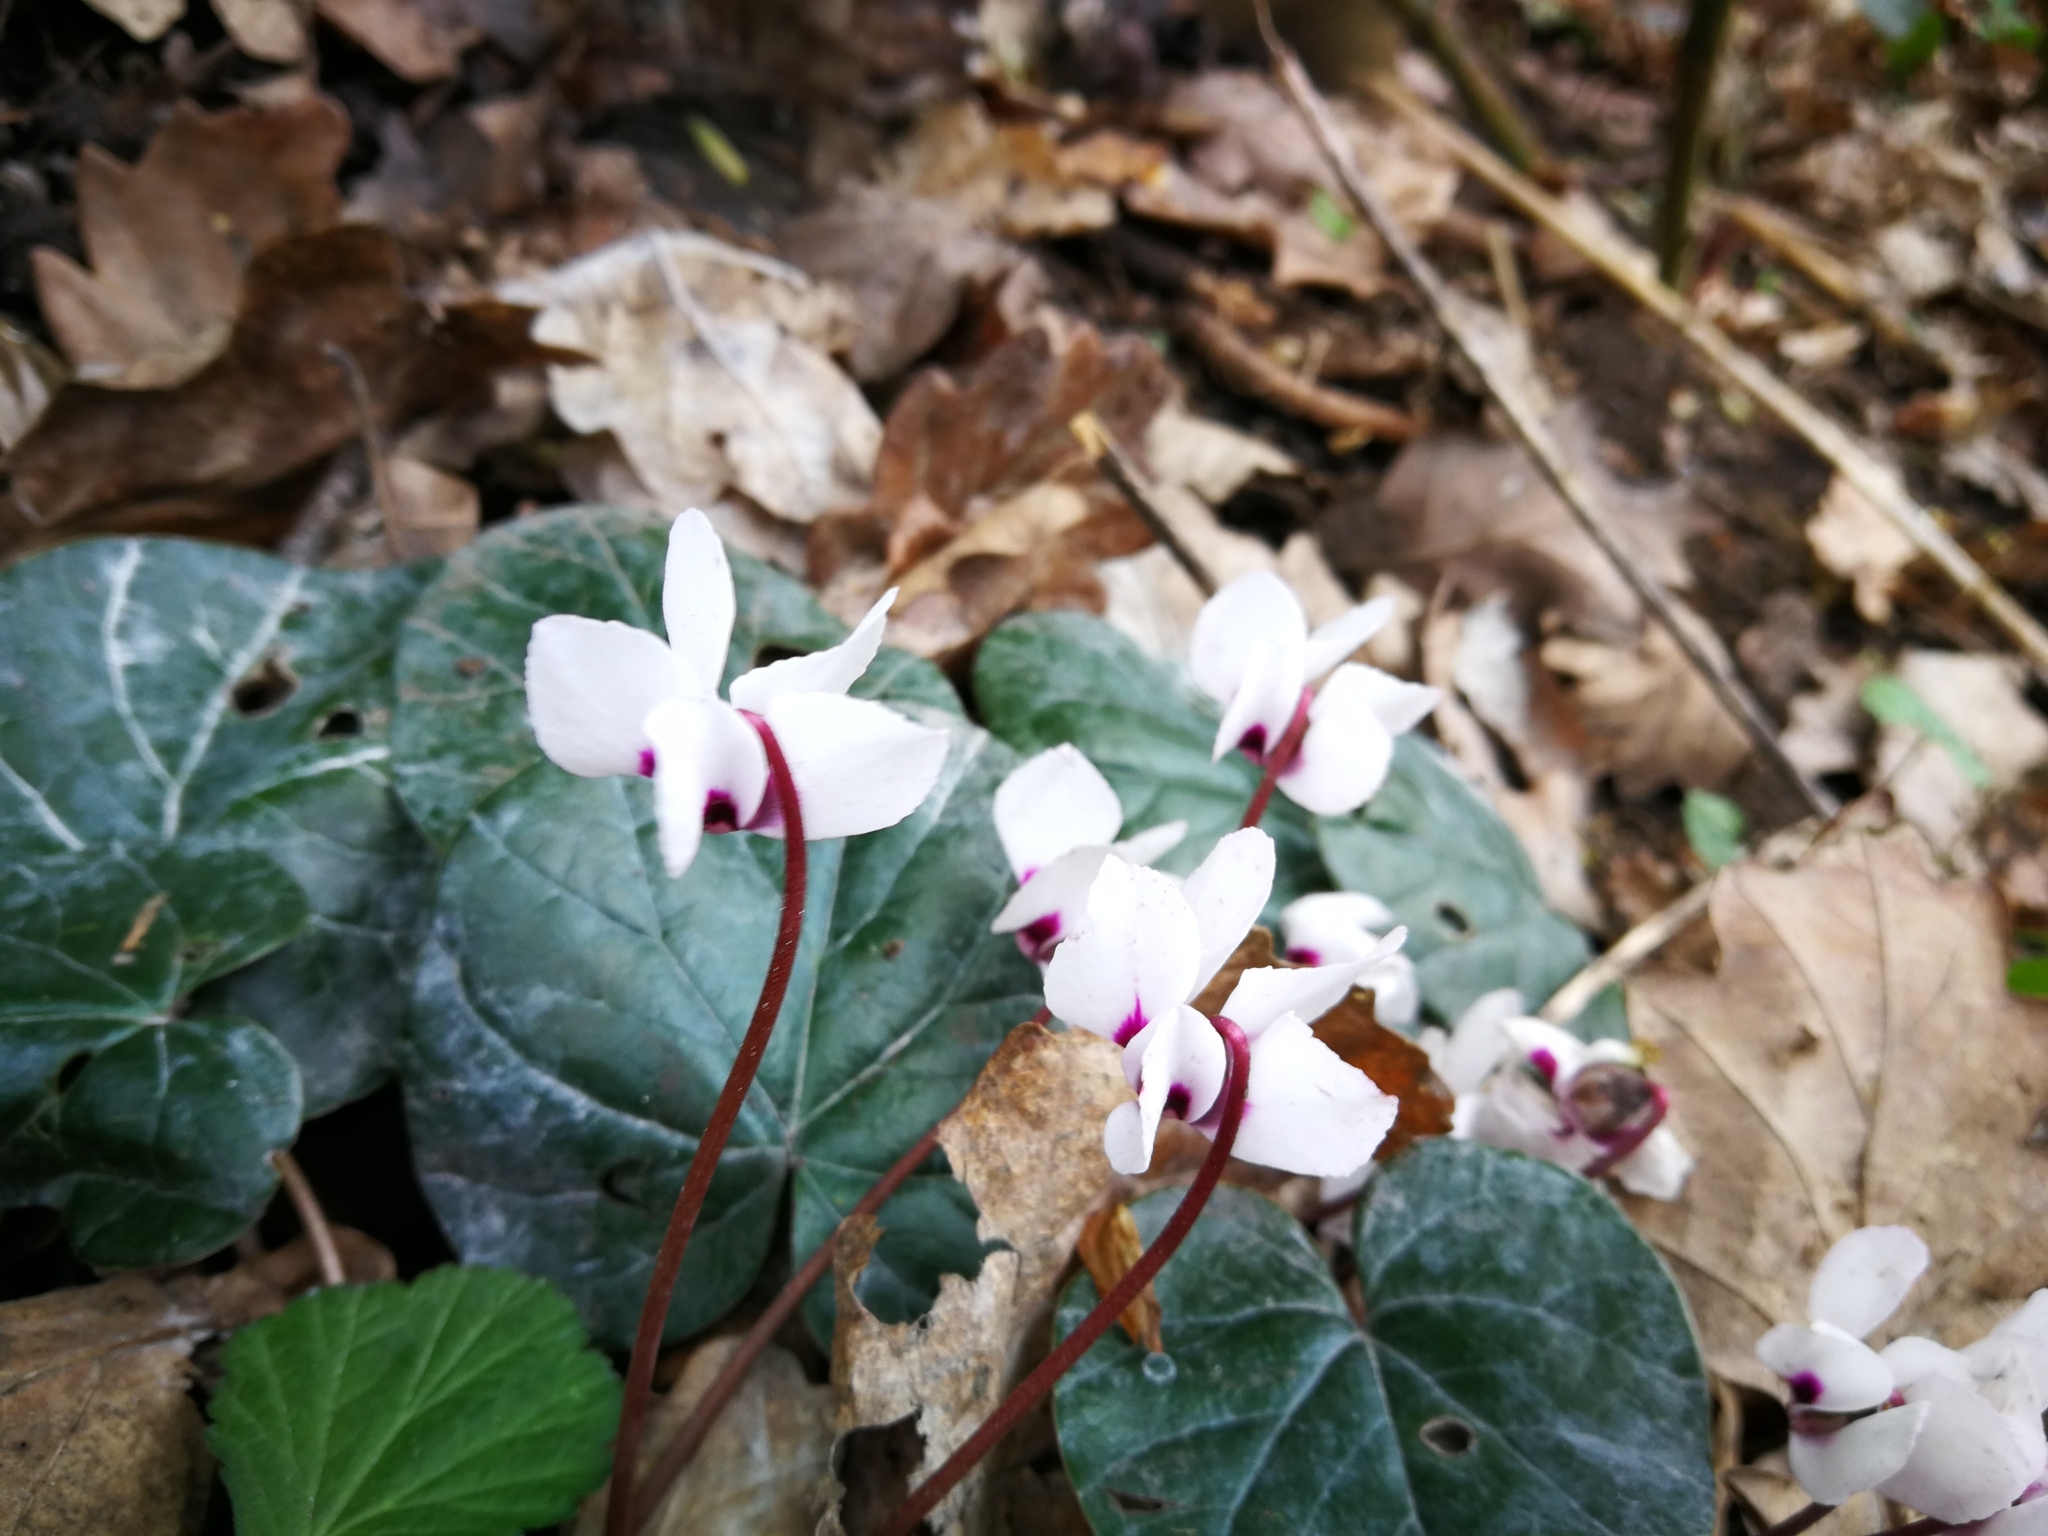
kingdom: Plantae
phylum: Tracheophyta
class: Magnoliopsida
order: Ericales
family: Primulaceae
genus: Cyclamen
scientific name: Cyclamen coum
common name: Eastern sowbread
